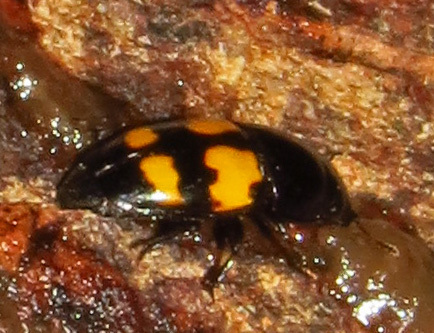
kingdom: Animalia
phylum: Arthropoda
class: Insecta
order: Coleoptera
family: Nitidulidae
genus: Glischrochilus
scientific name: Glischrochilus fasciatus
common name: Picnic beetle
